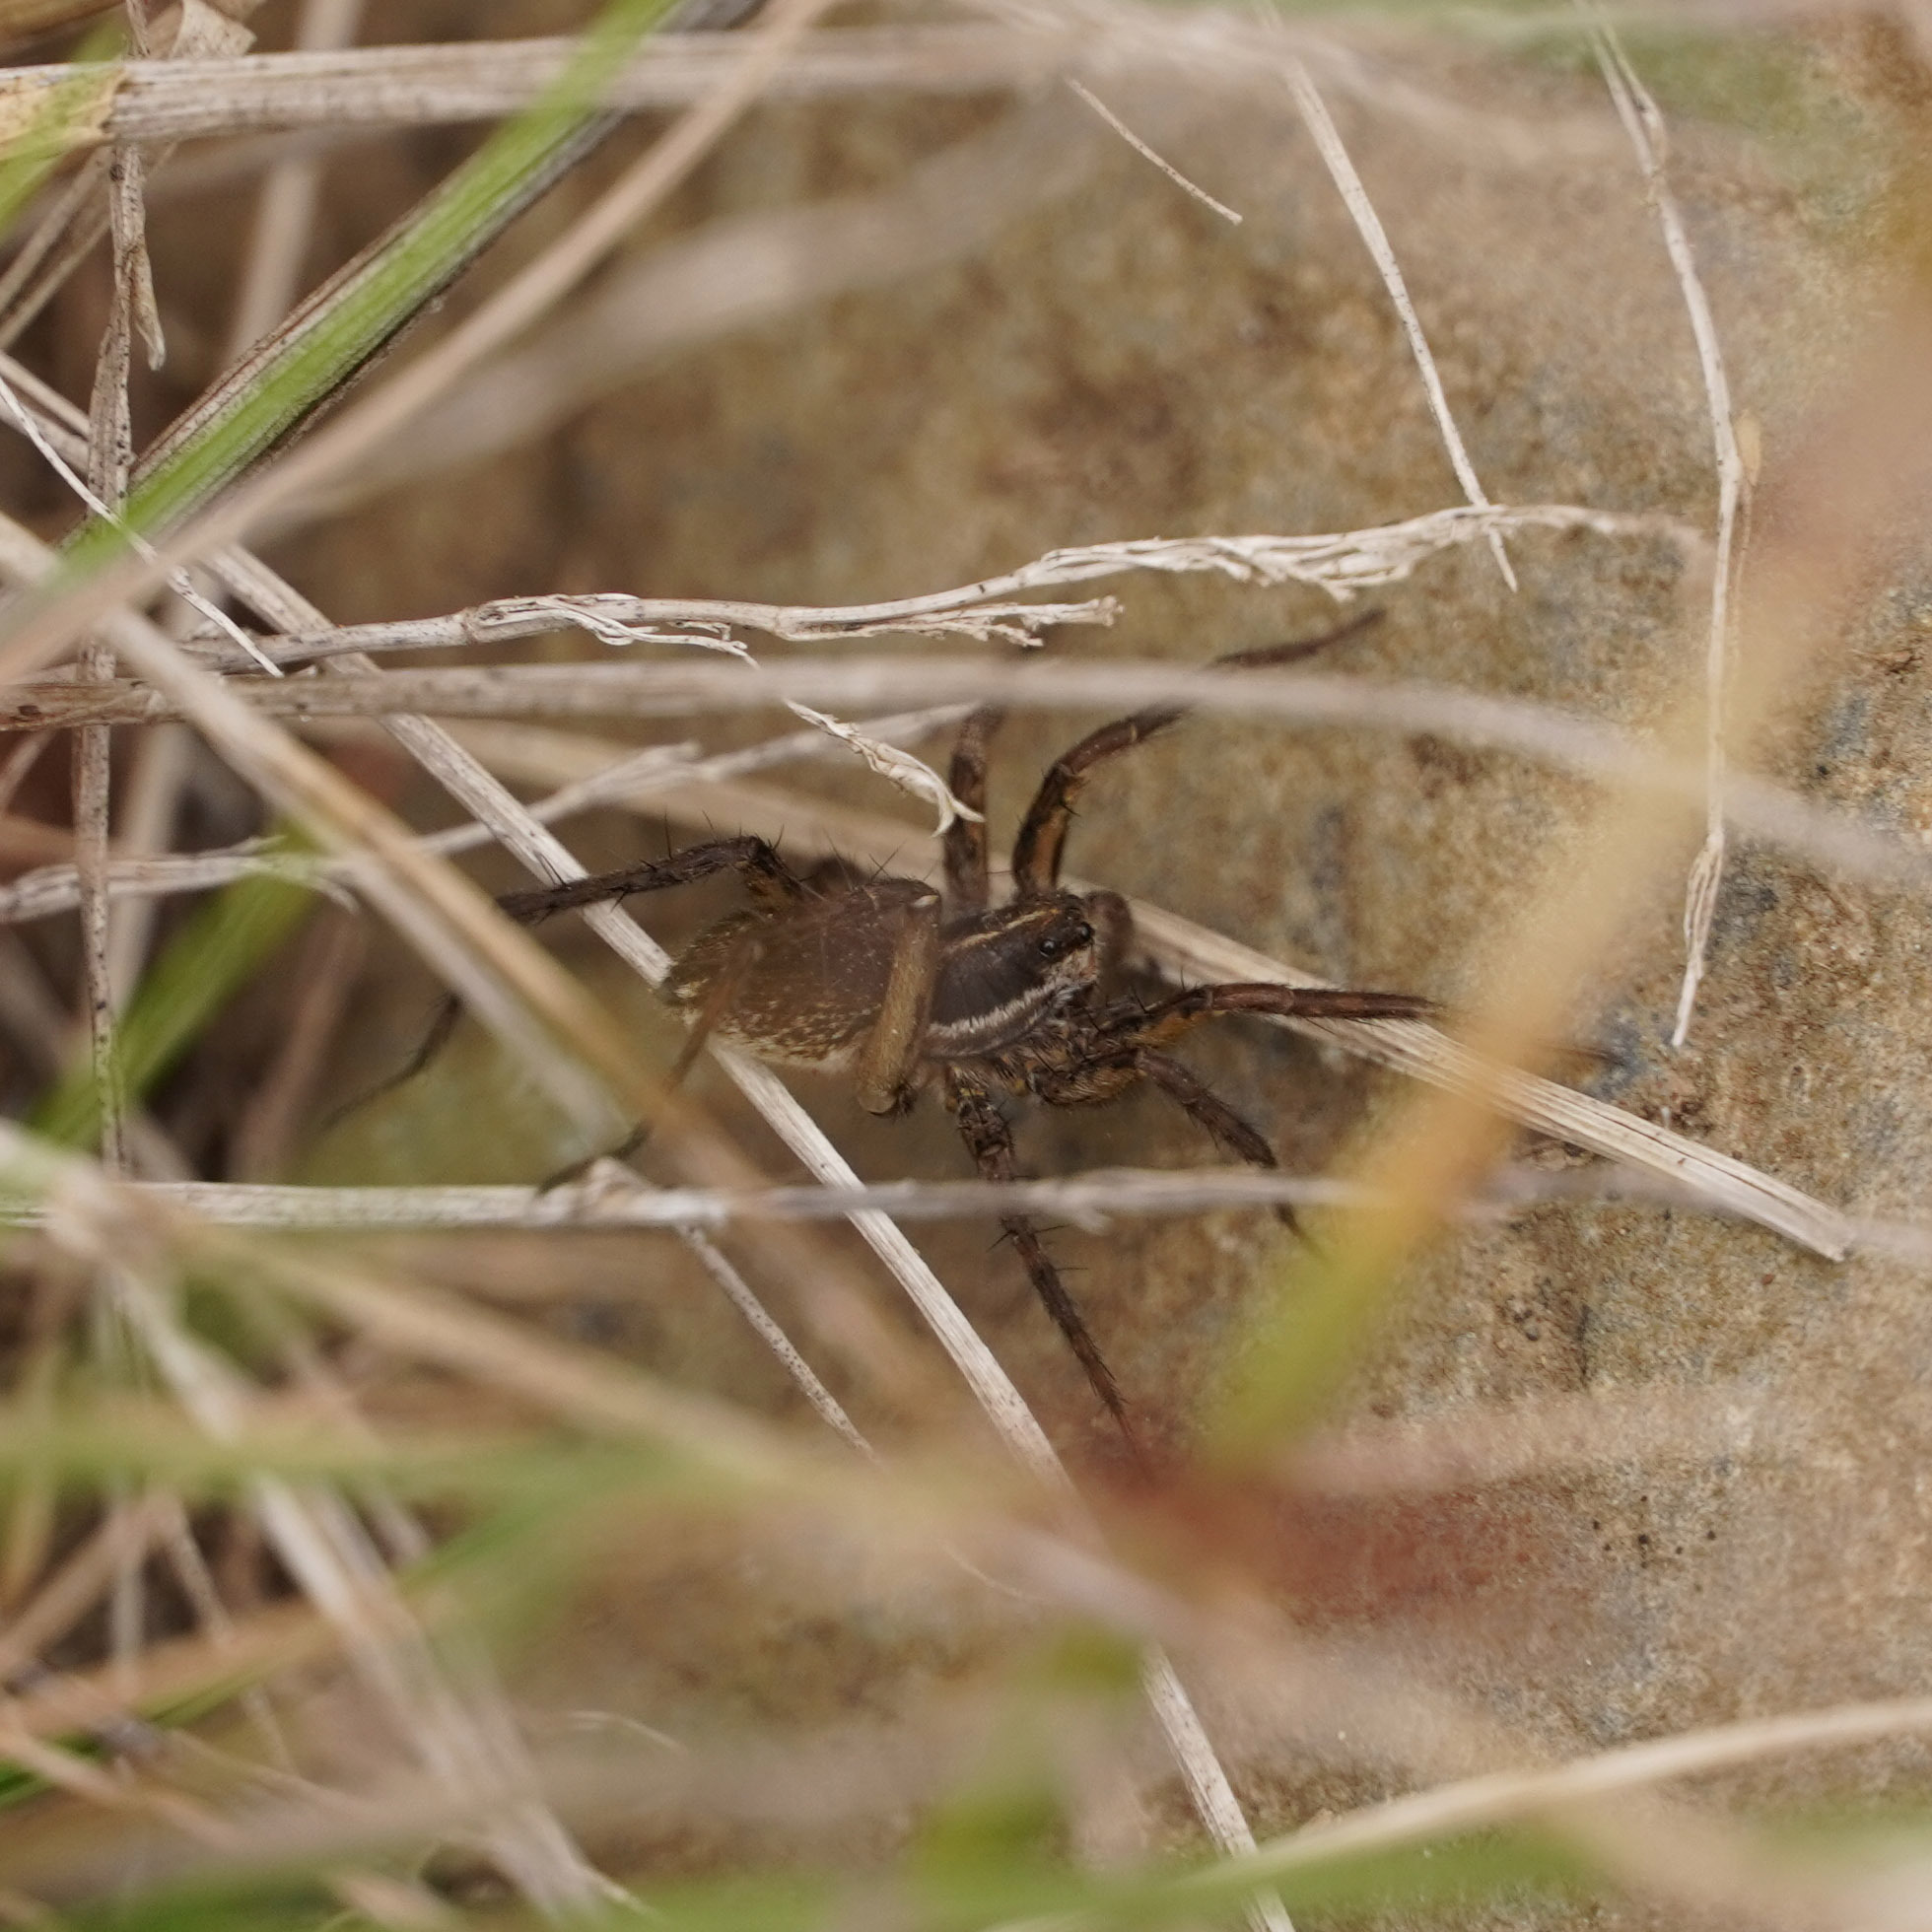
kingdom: Animalia
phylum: Arthropoda
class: Arachnida
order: Araneae
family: Lycosidae
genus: Pardosa
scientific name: Pardosa palustris
